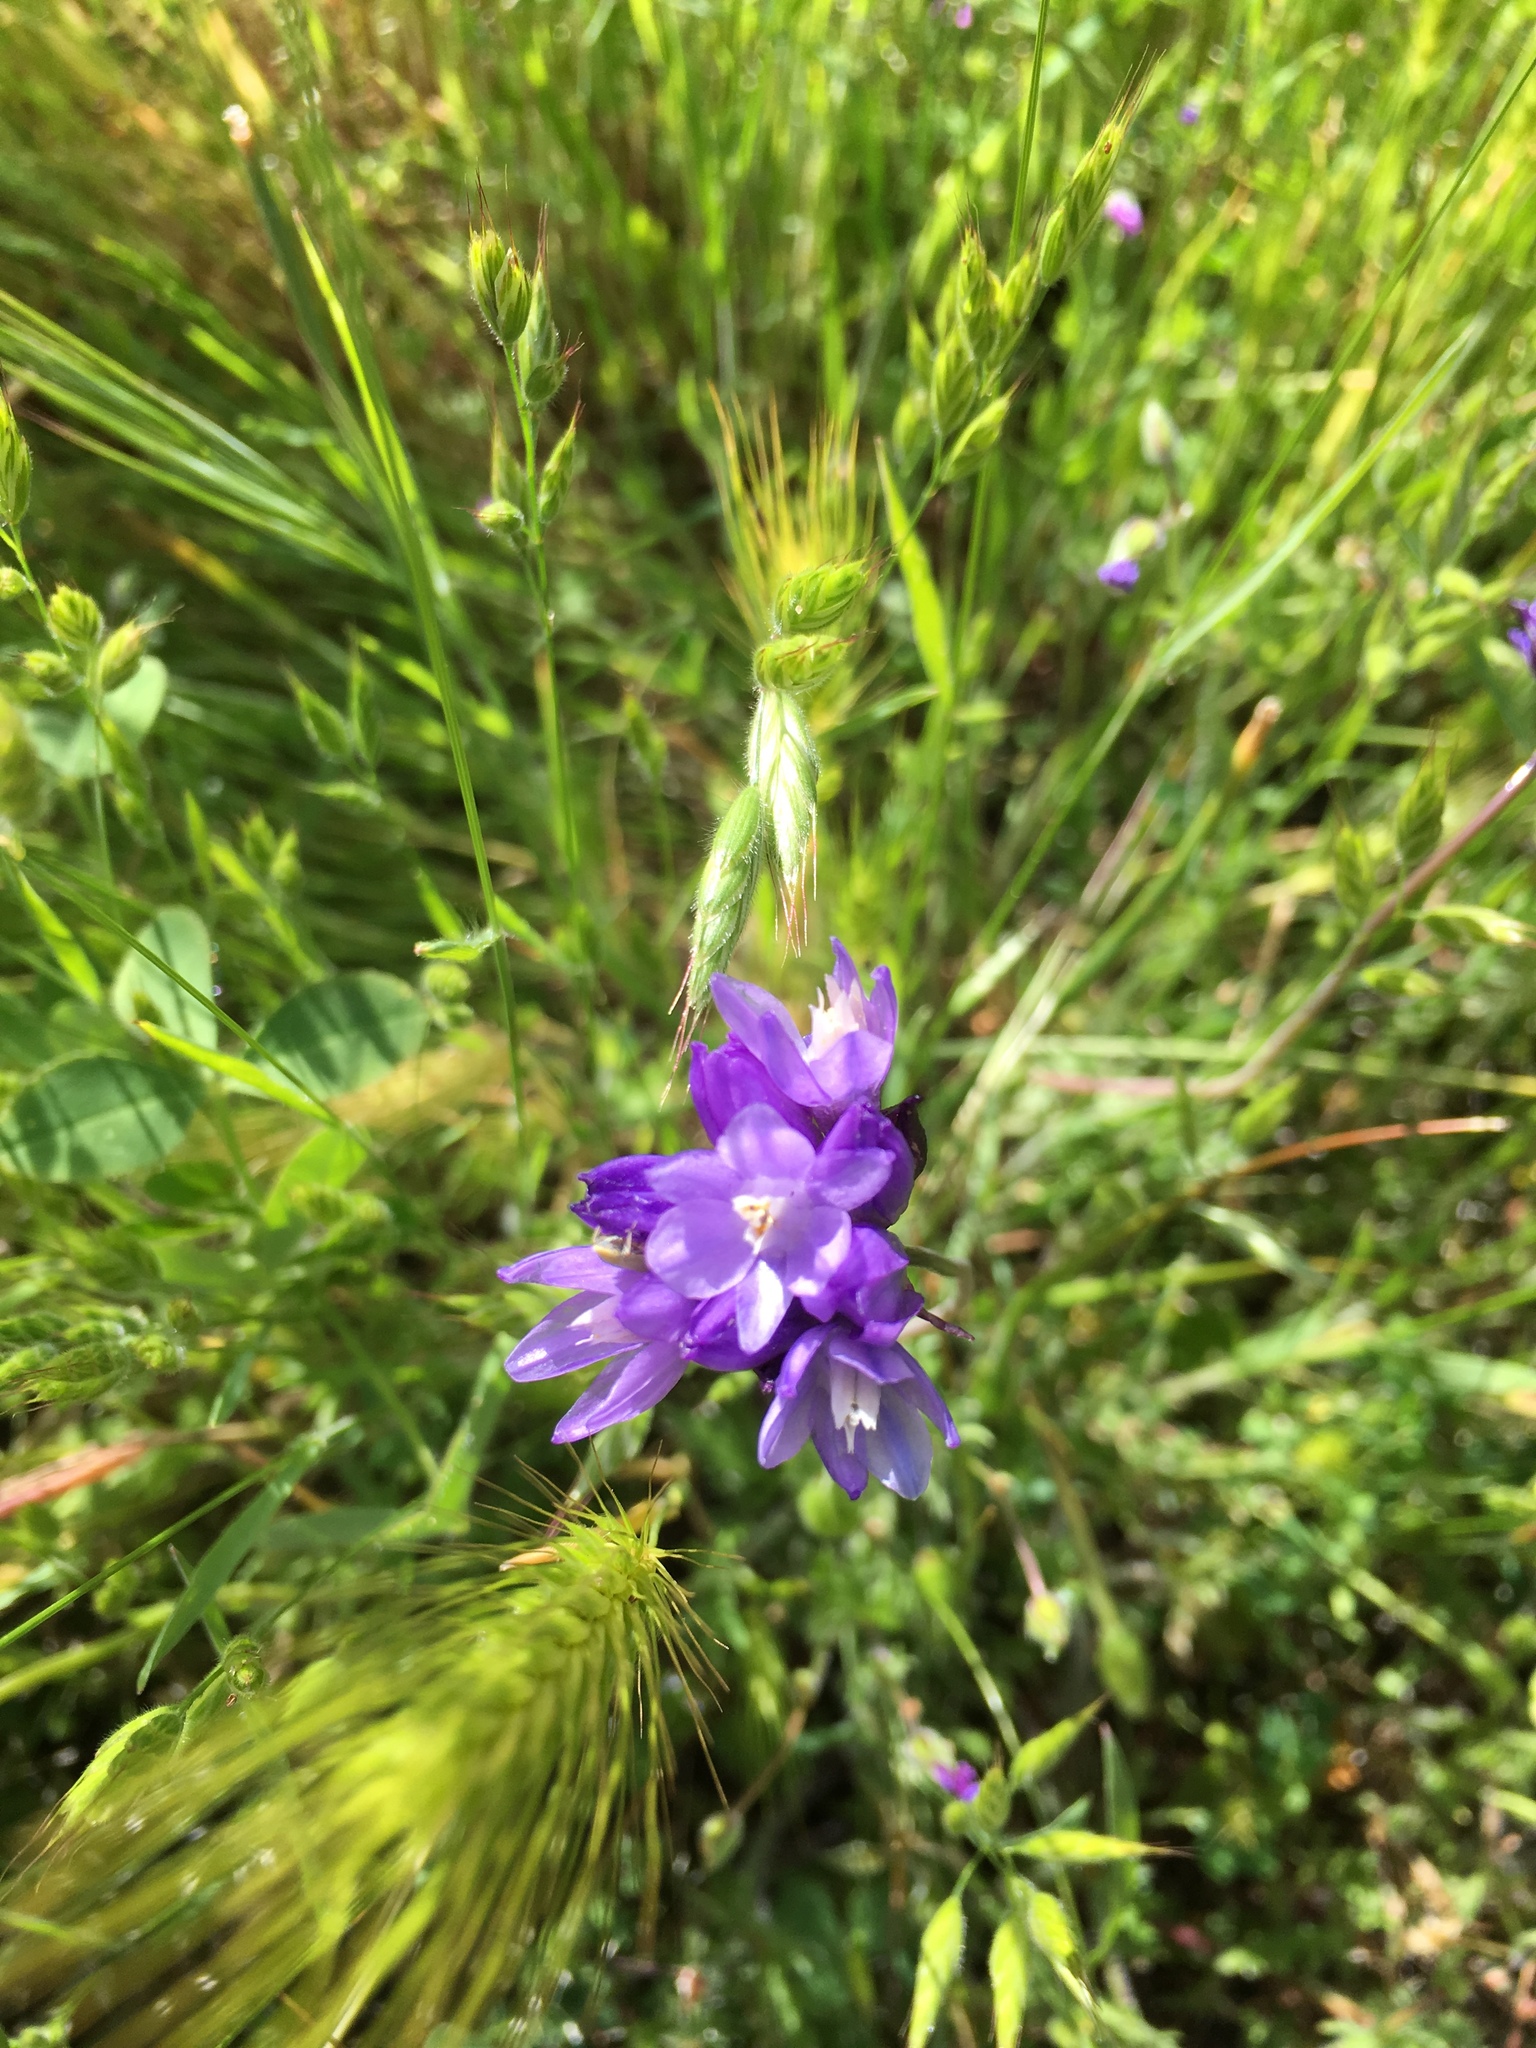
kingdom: Plantae
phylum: Tracheophyta
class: Liliopsida
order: Asparagales
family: Asparagaceae
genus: Dipterostemon
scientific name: Dipterostemon capitatus
